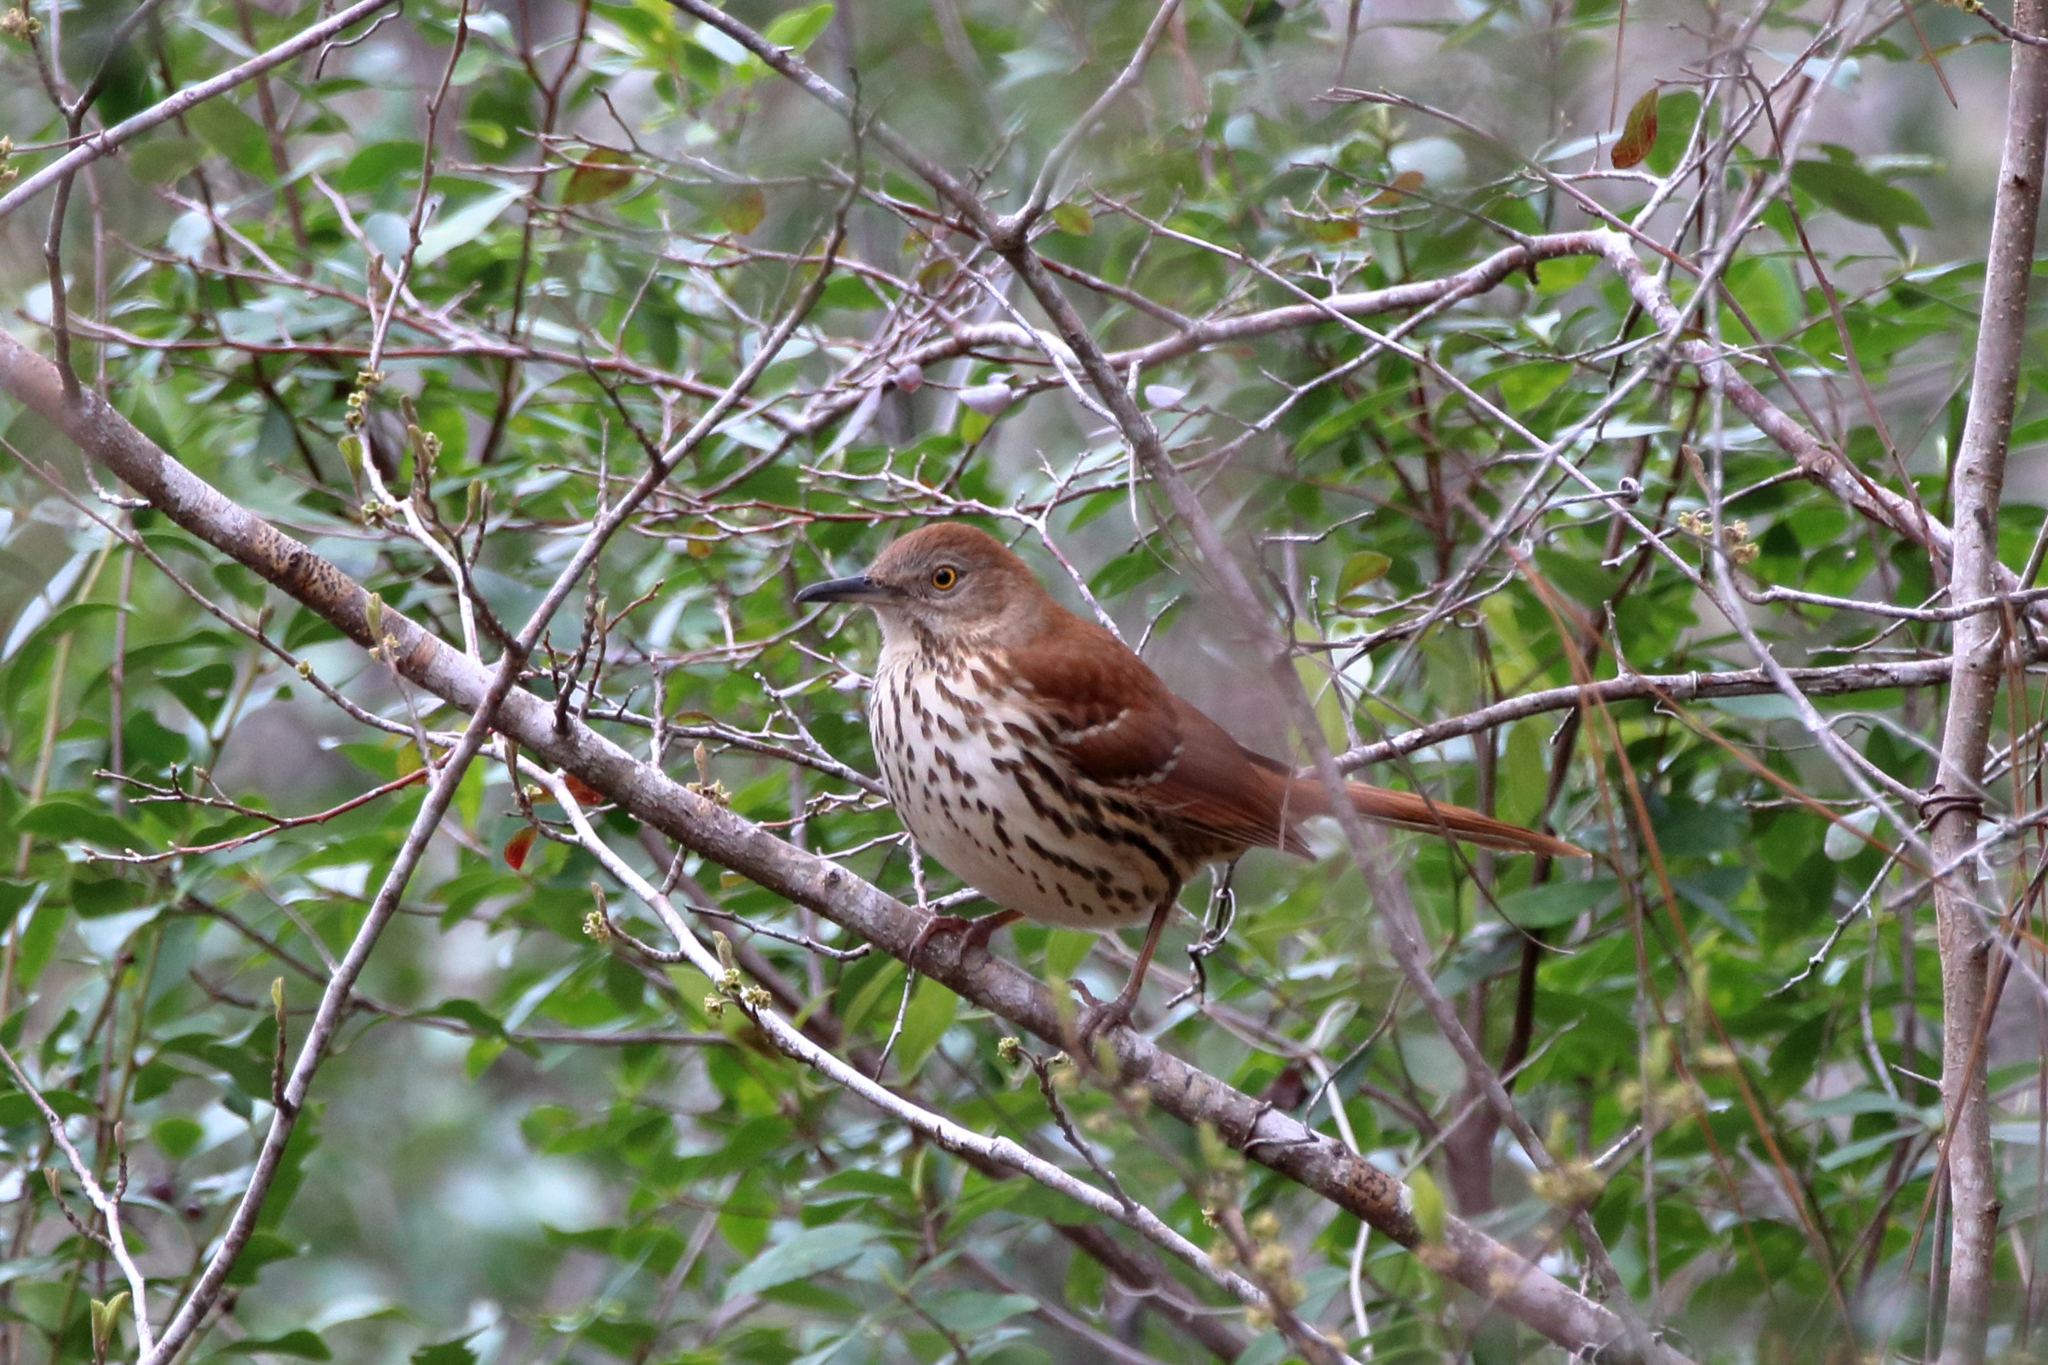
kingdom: Animalia
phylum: Chordata
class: Aves
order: Passeriformes
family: Mimidae
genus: Toxostoma
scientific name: Toxostoma rufum
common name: Brown thrasher
